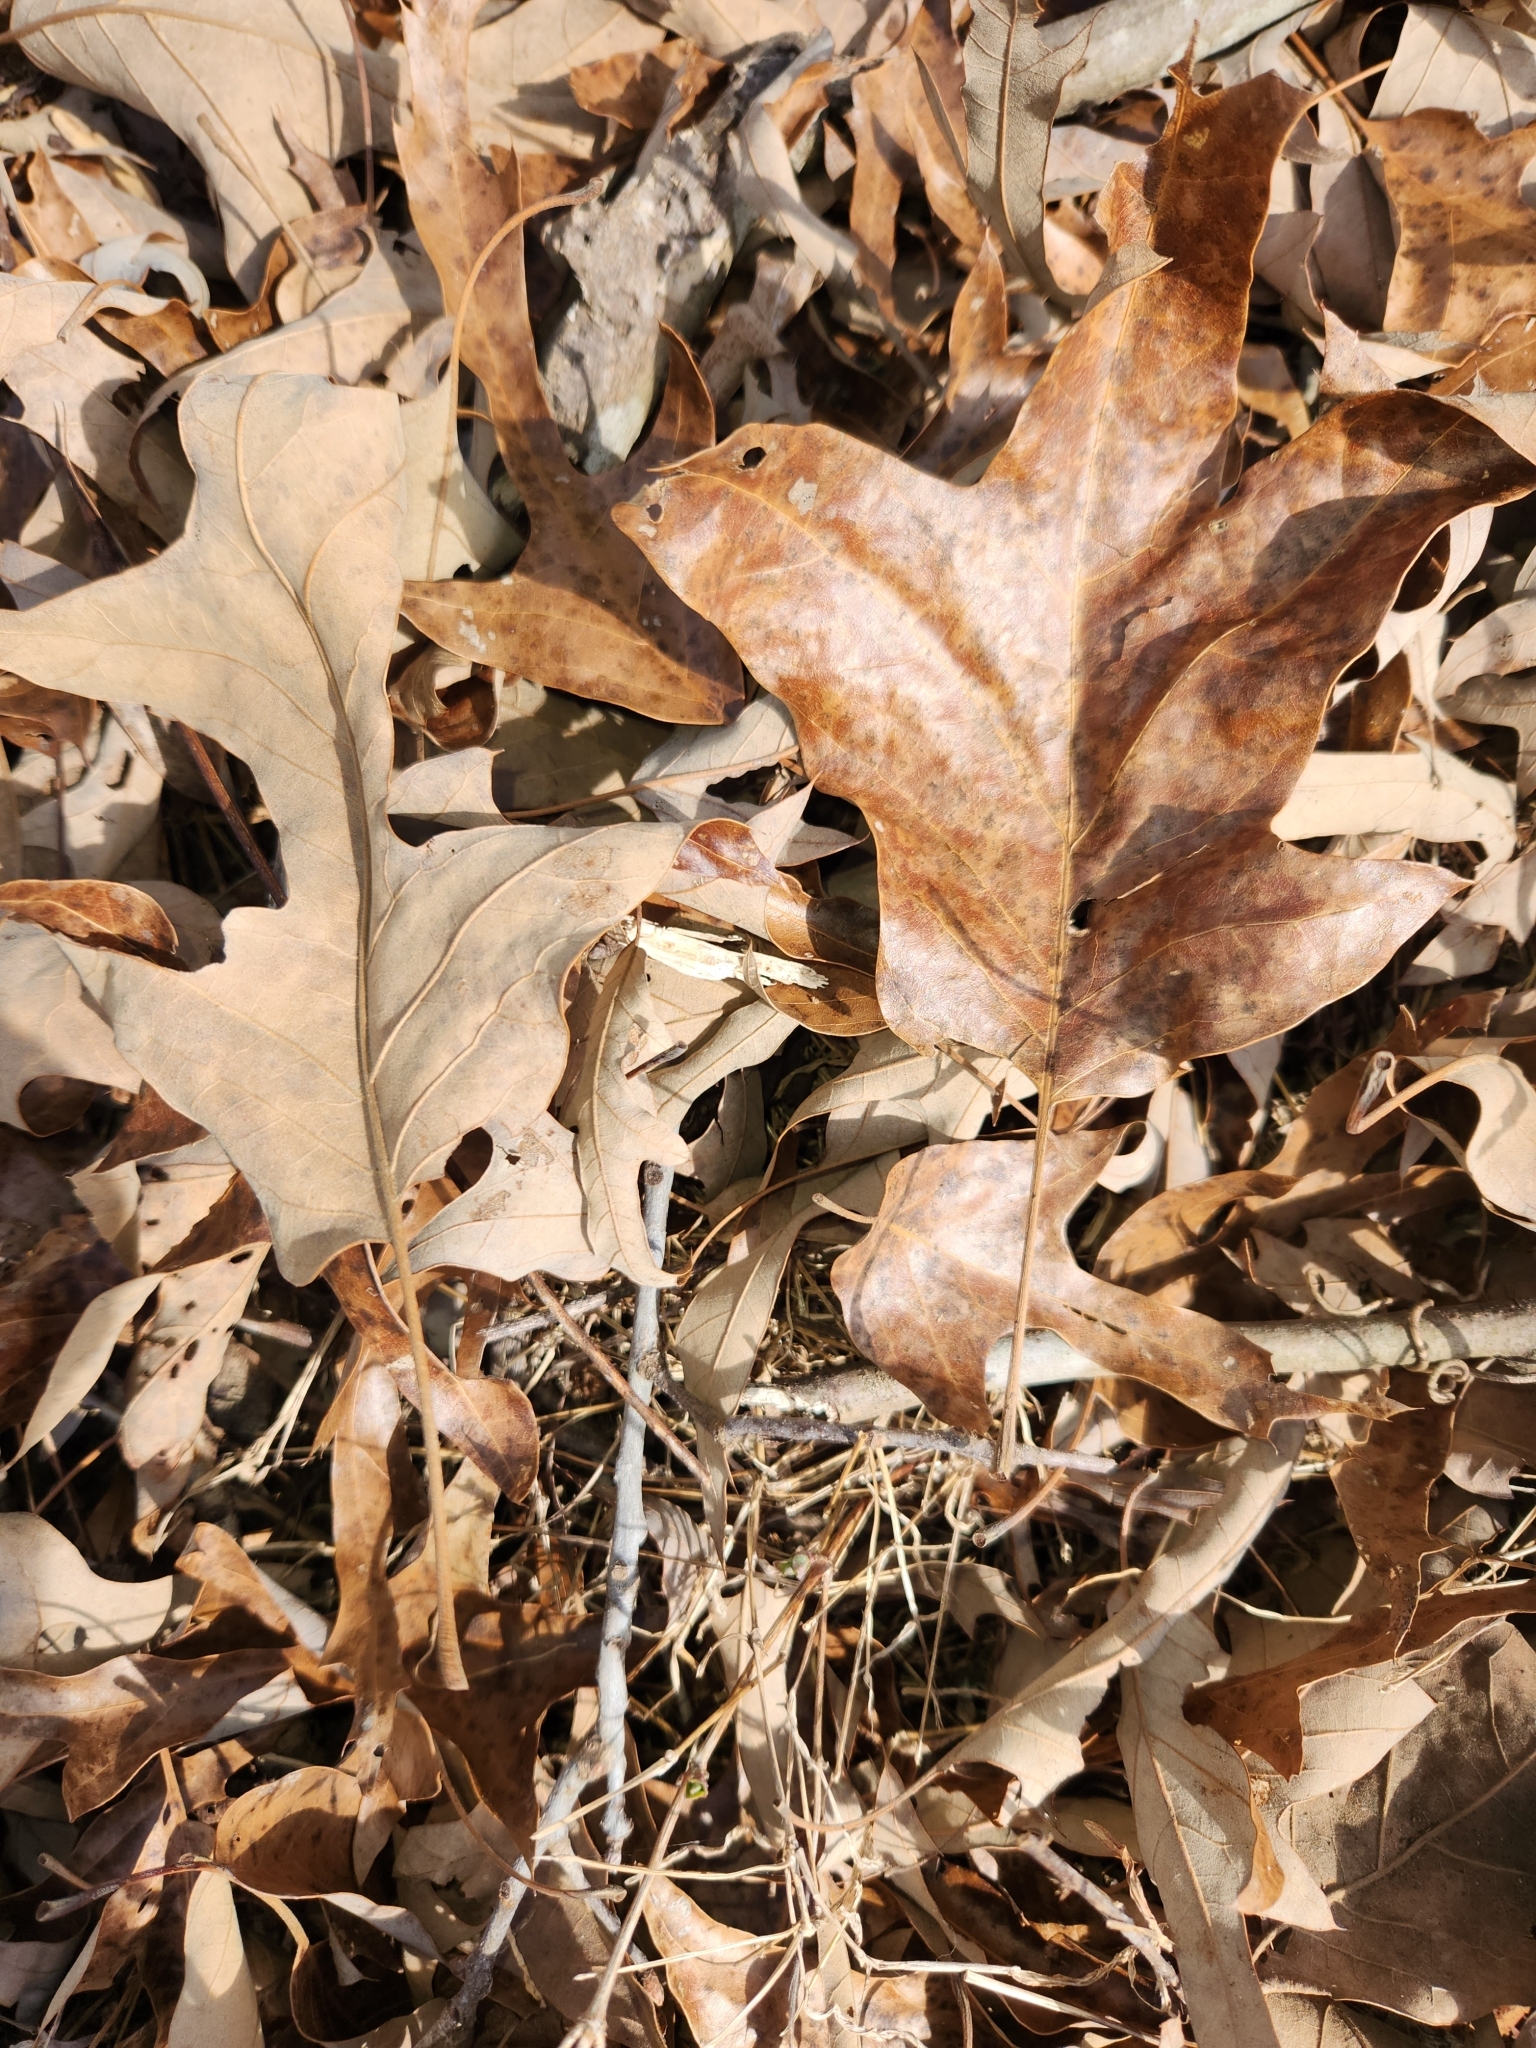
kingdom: Plantae
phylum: Tracheophyta
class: Magnoliopsida
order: Fagales
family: Fagaceae
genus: Quercus
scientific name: Quercus falcata
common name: Southern red oak
